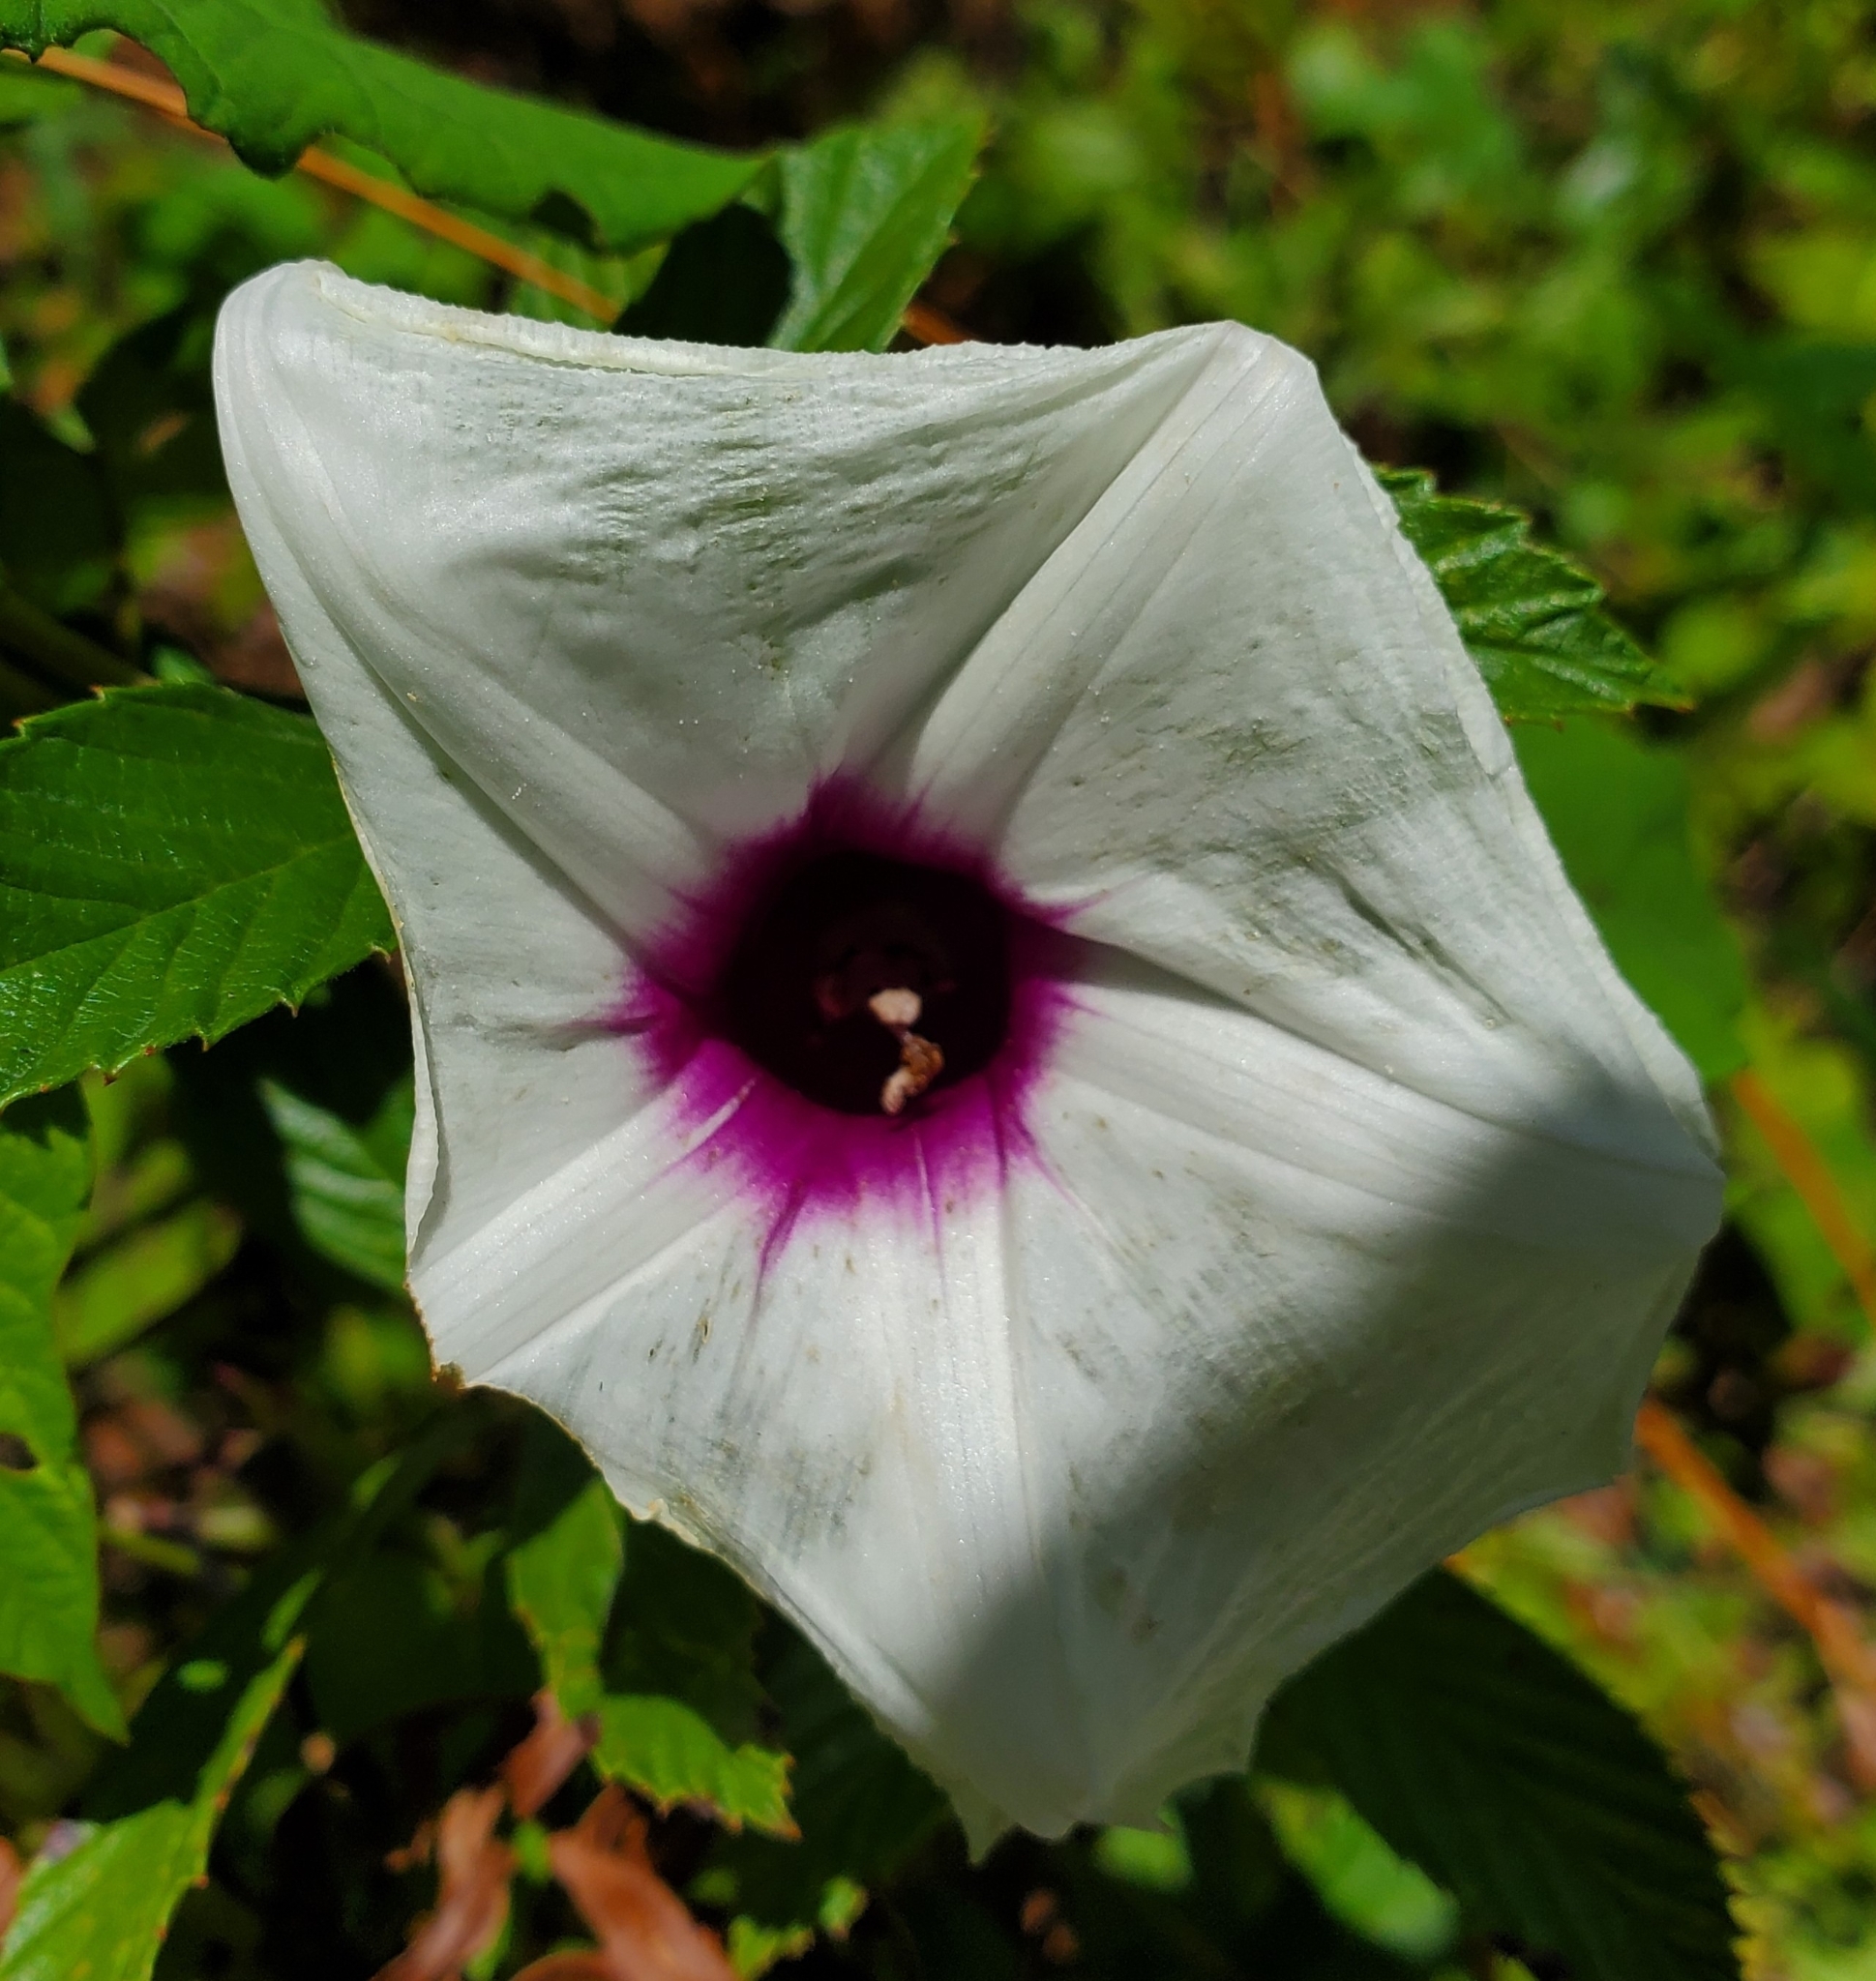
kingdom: Plantae
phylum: Tracheophyta
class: Magnoliopsida
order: Solanales
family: Convolvulaceae
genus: Ipomoea
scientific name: Ipomoea pandurata
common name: Man-of-the-earth
